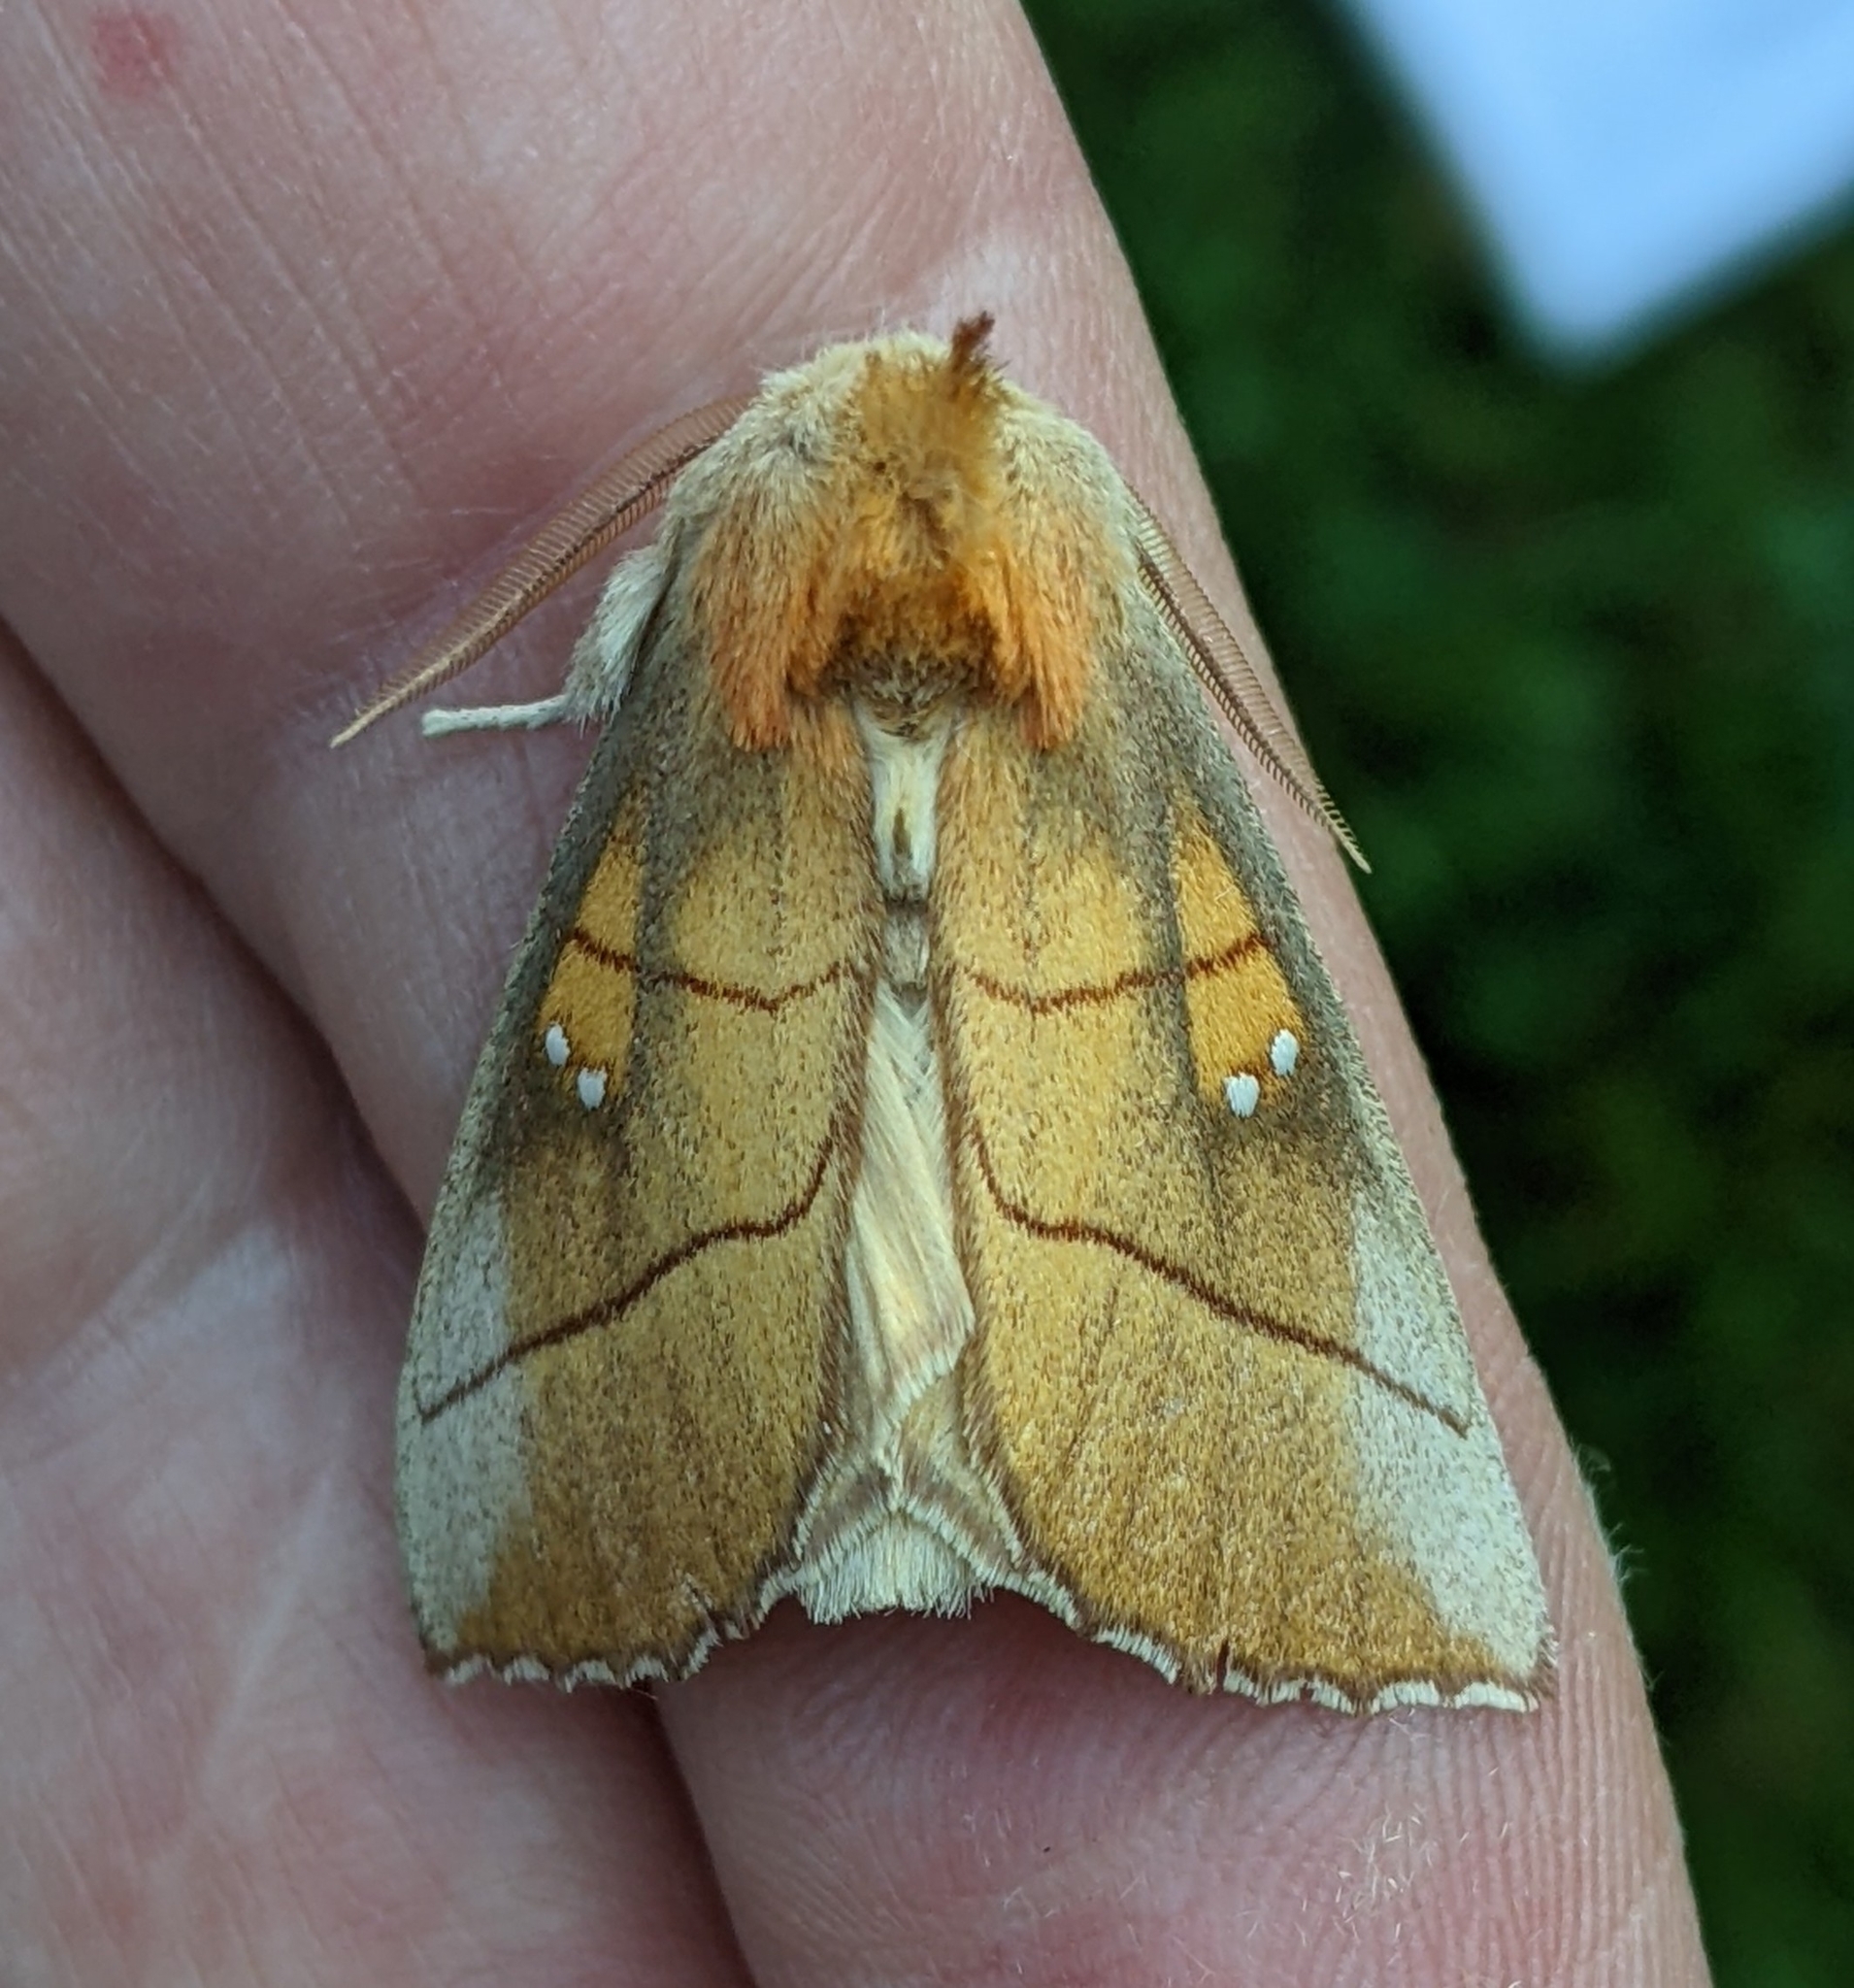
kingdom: Animalia
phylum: Arthropoda
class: Insecta
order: Lepidoptera
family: Notodontidae
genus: Nadata
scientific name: Nadata gibbosa
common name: White-dotted prominent
